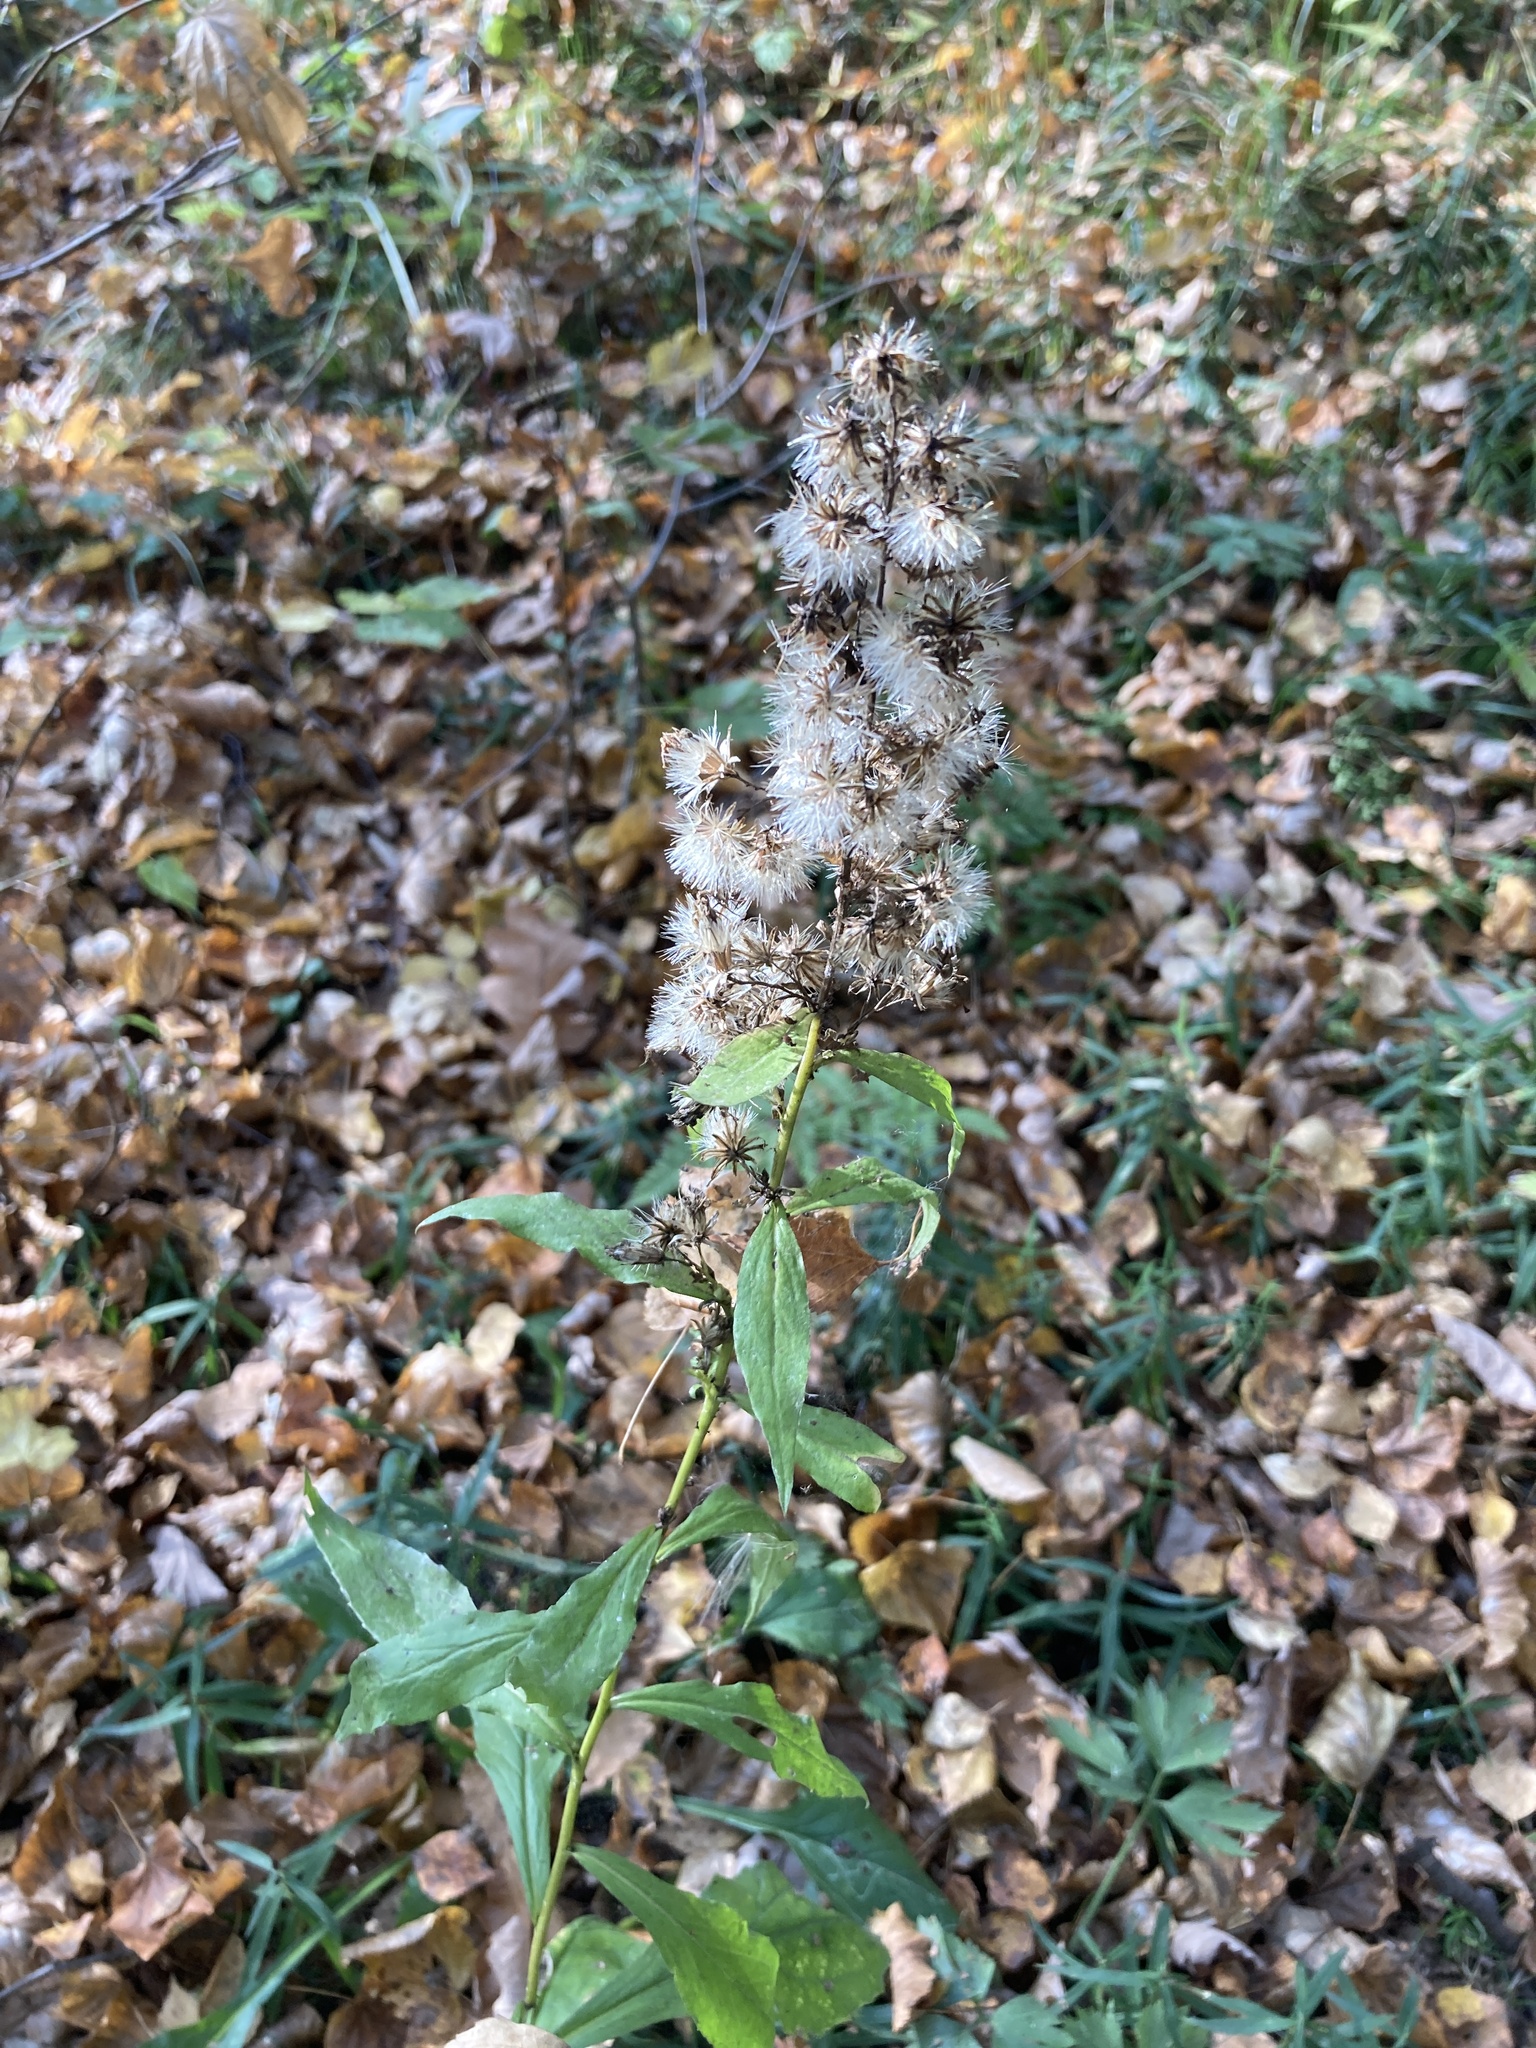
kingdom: Plantae
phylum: Tracheophyta
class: Magnoliopsida
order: Asterales
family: Asteraceae
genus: Solidago
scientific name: Solidago virgaurea
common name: Goldenrod
